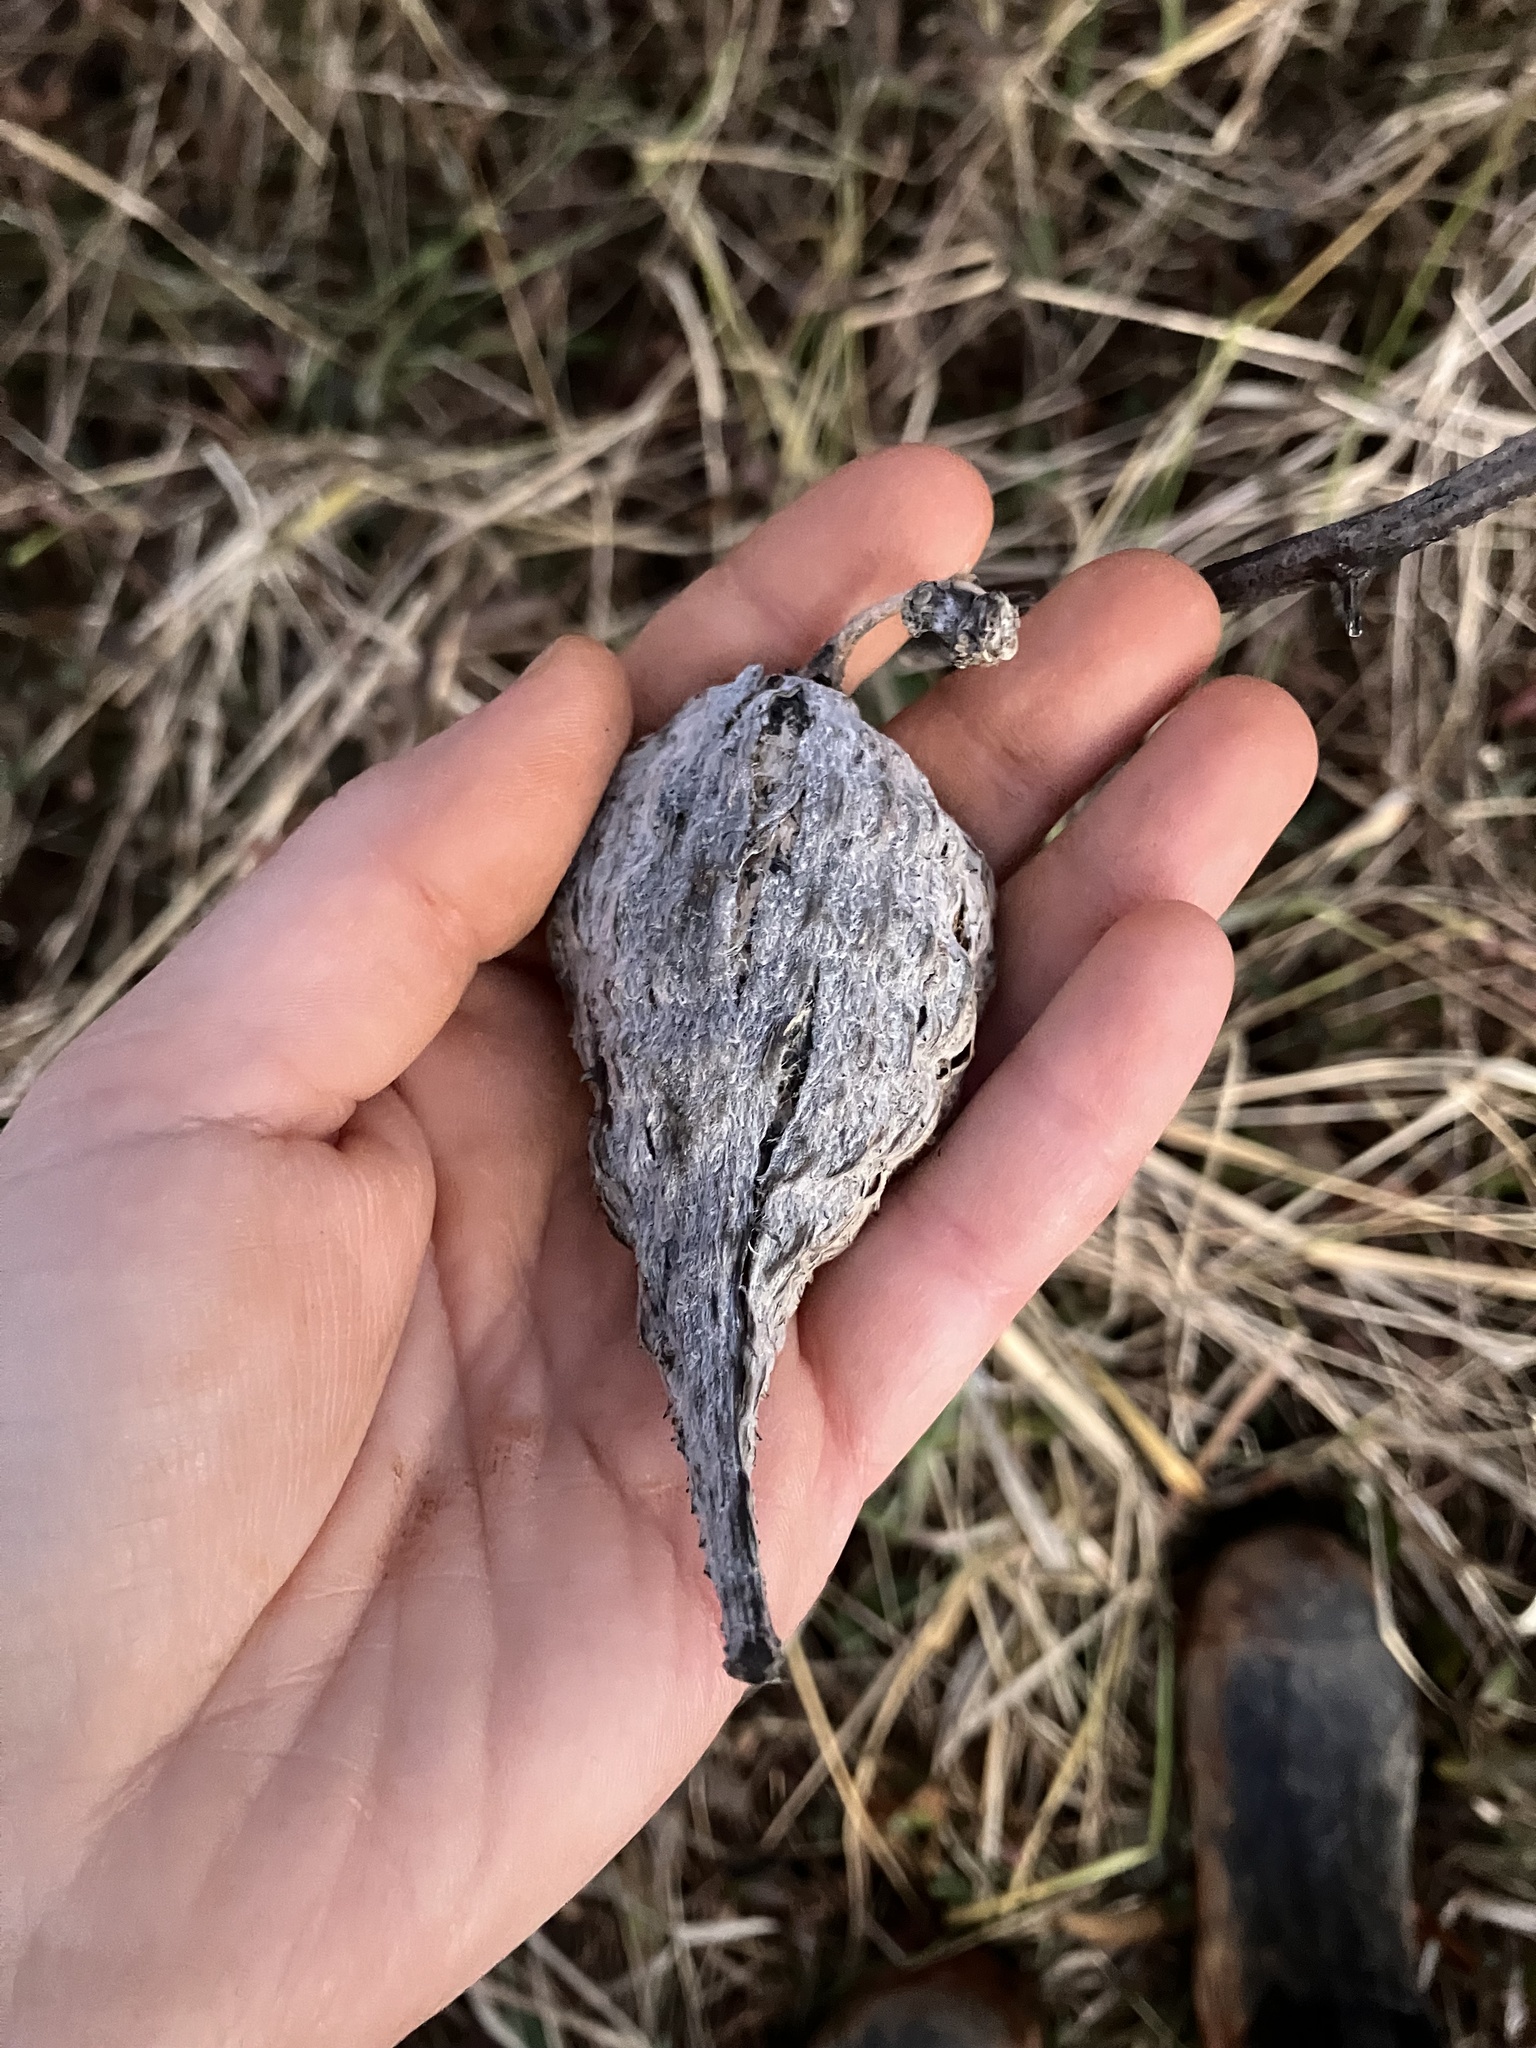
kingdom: Plantae
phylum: Tracheophyta
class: Magnoliopsida
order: Gentianales
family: Apocynaceae
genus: Asclepias
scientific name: Asclepias syriaca
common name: Common milkweed
